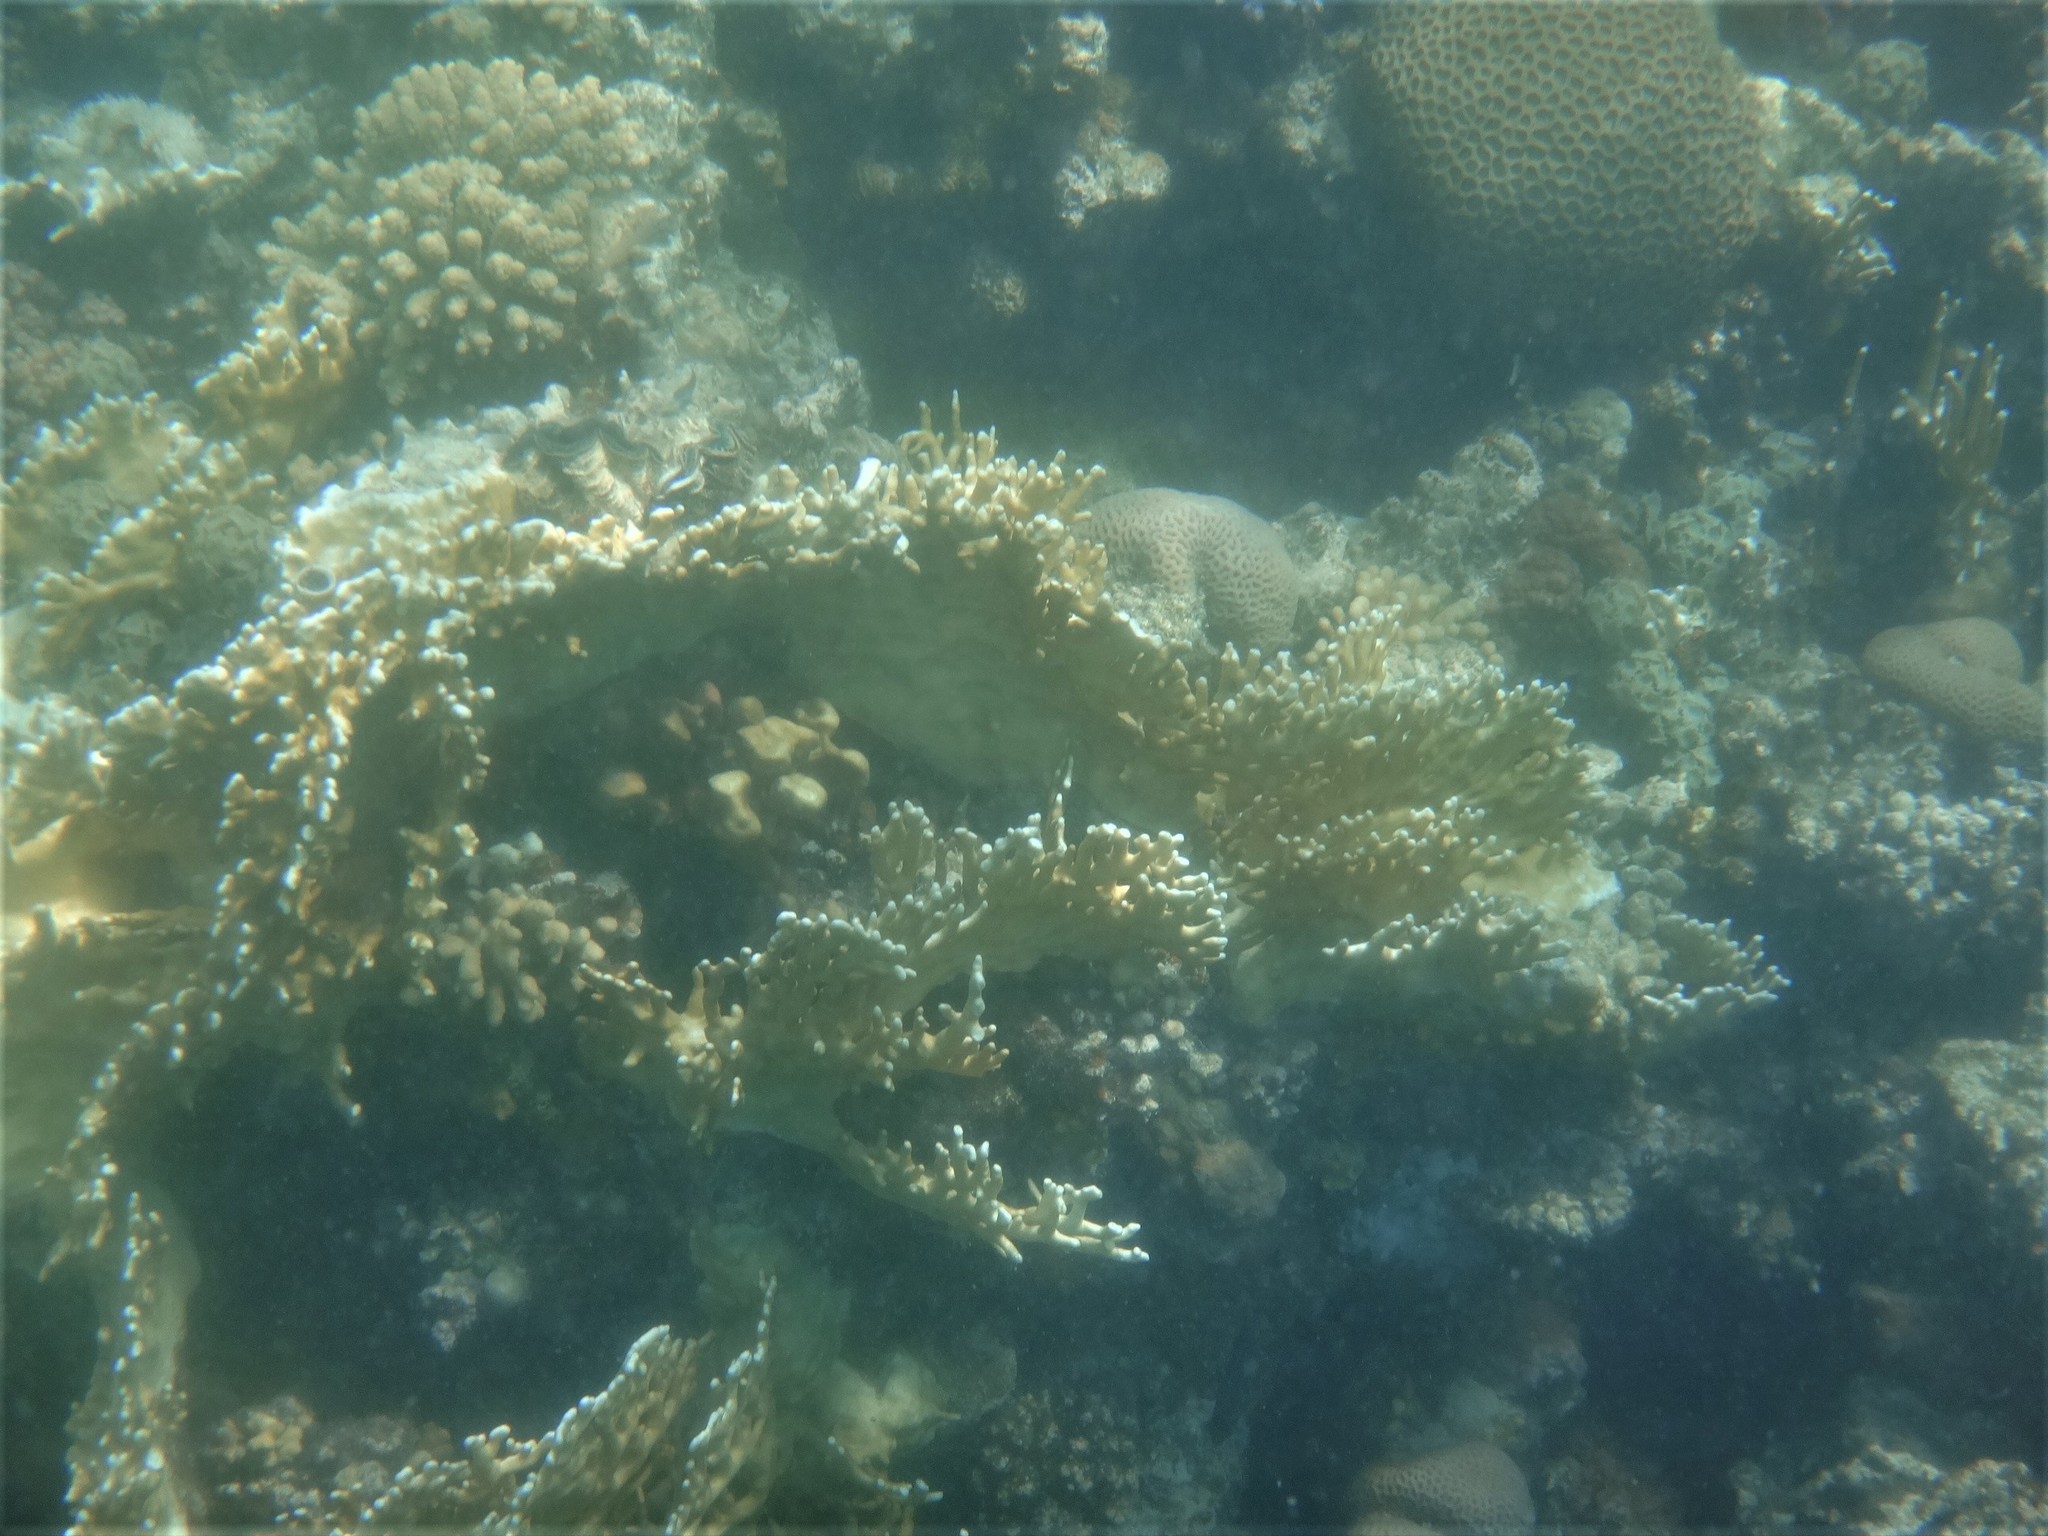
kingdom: Animalia
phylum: Cnidaria
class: Hydrozoa
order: Anthoathecata
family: Milleporidae
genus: Millepora
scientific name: Millepora dichotoma
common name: Ramified fire coral
